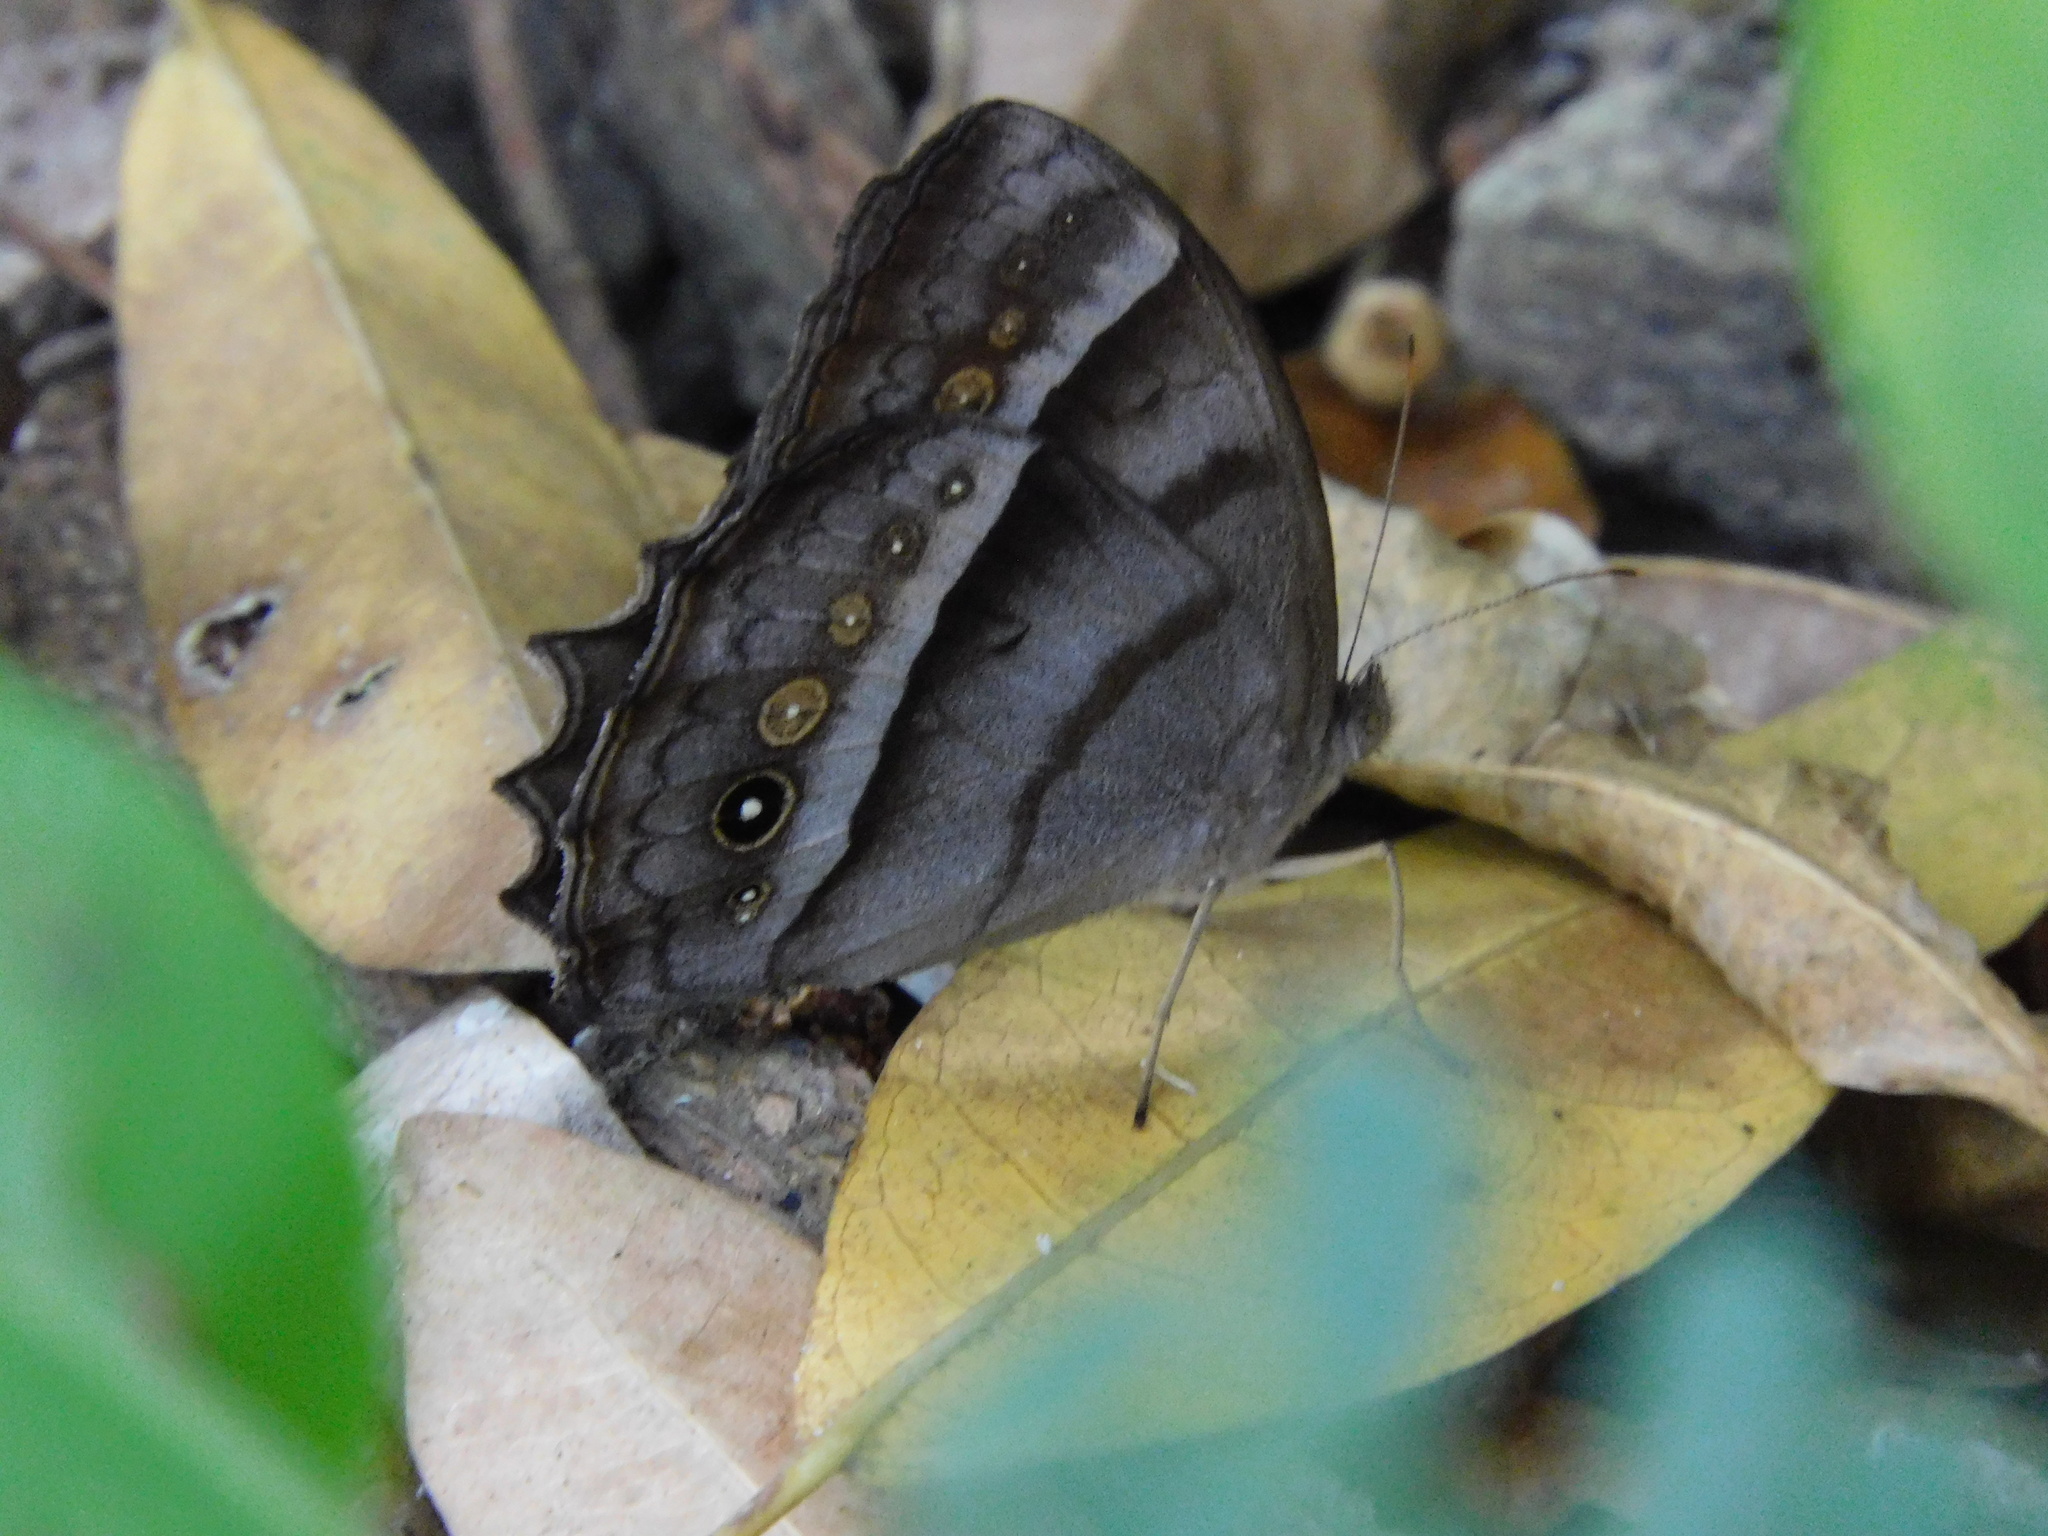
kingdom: Animalia
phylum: Arthropoda
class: Insecta
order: Lepidoptera
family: Nymphalidae
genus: Taygetis
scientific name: Taygetis thamyra
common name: Thamyra satyr
